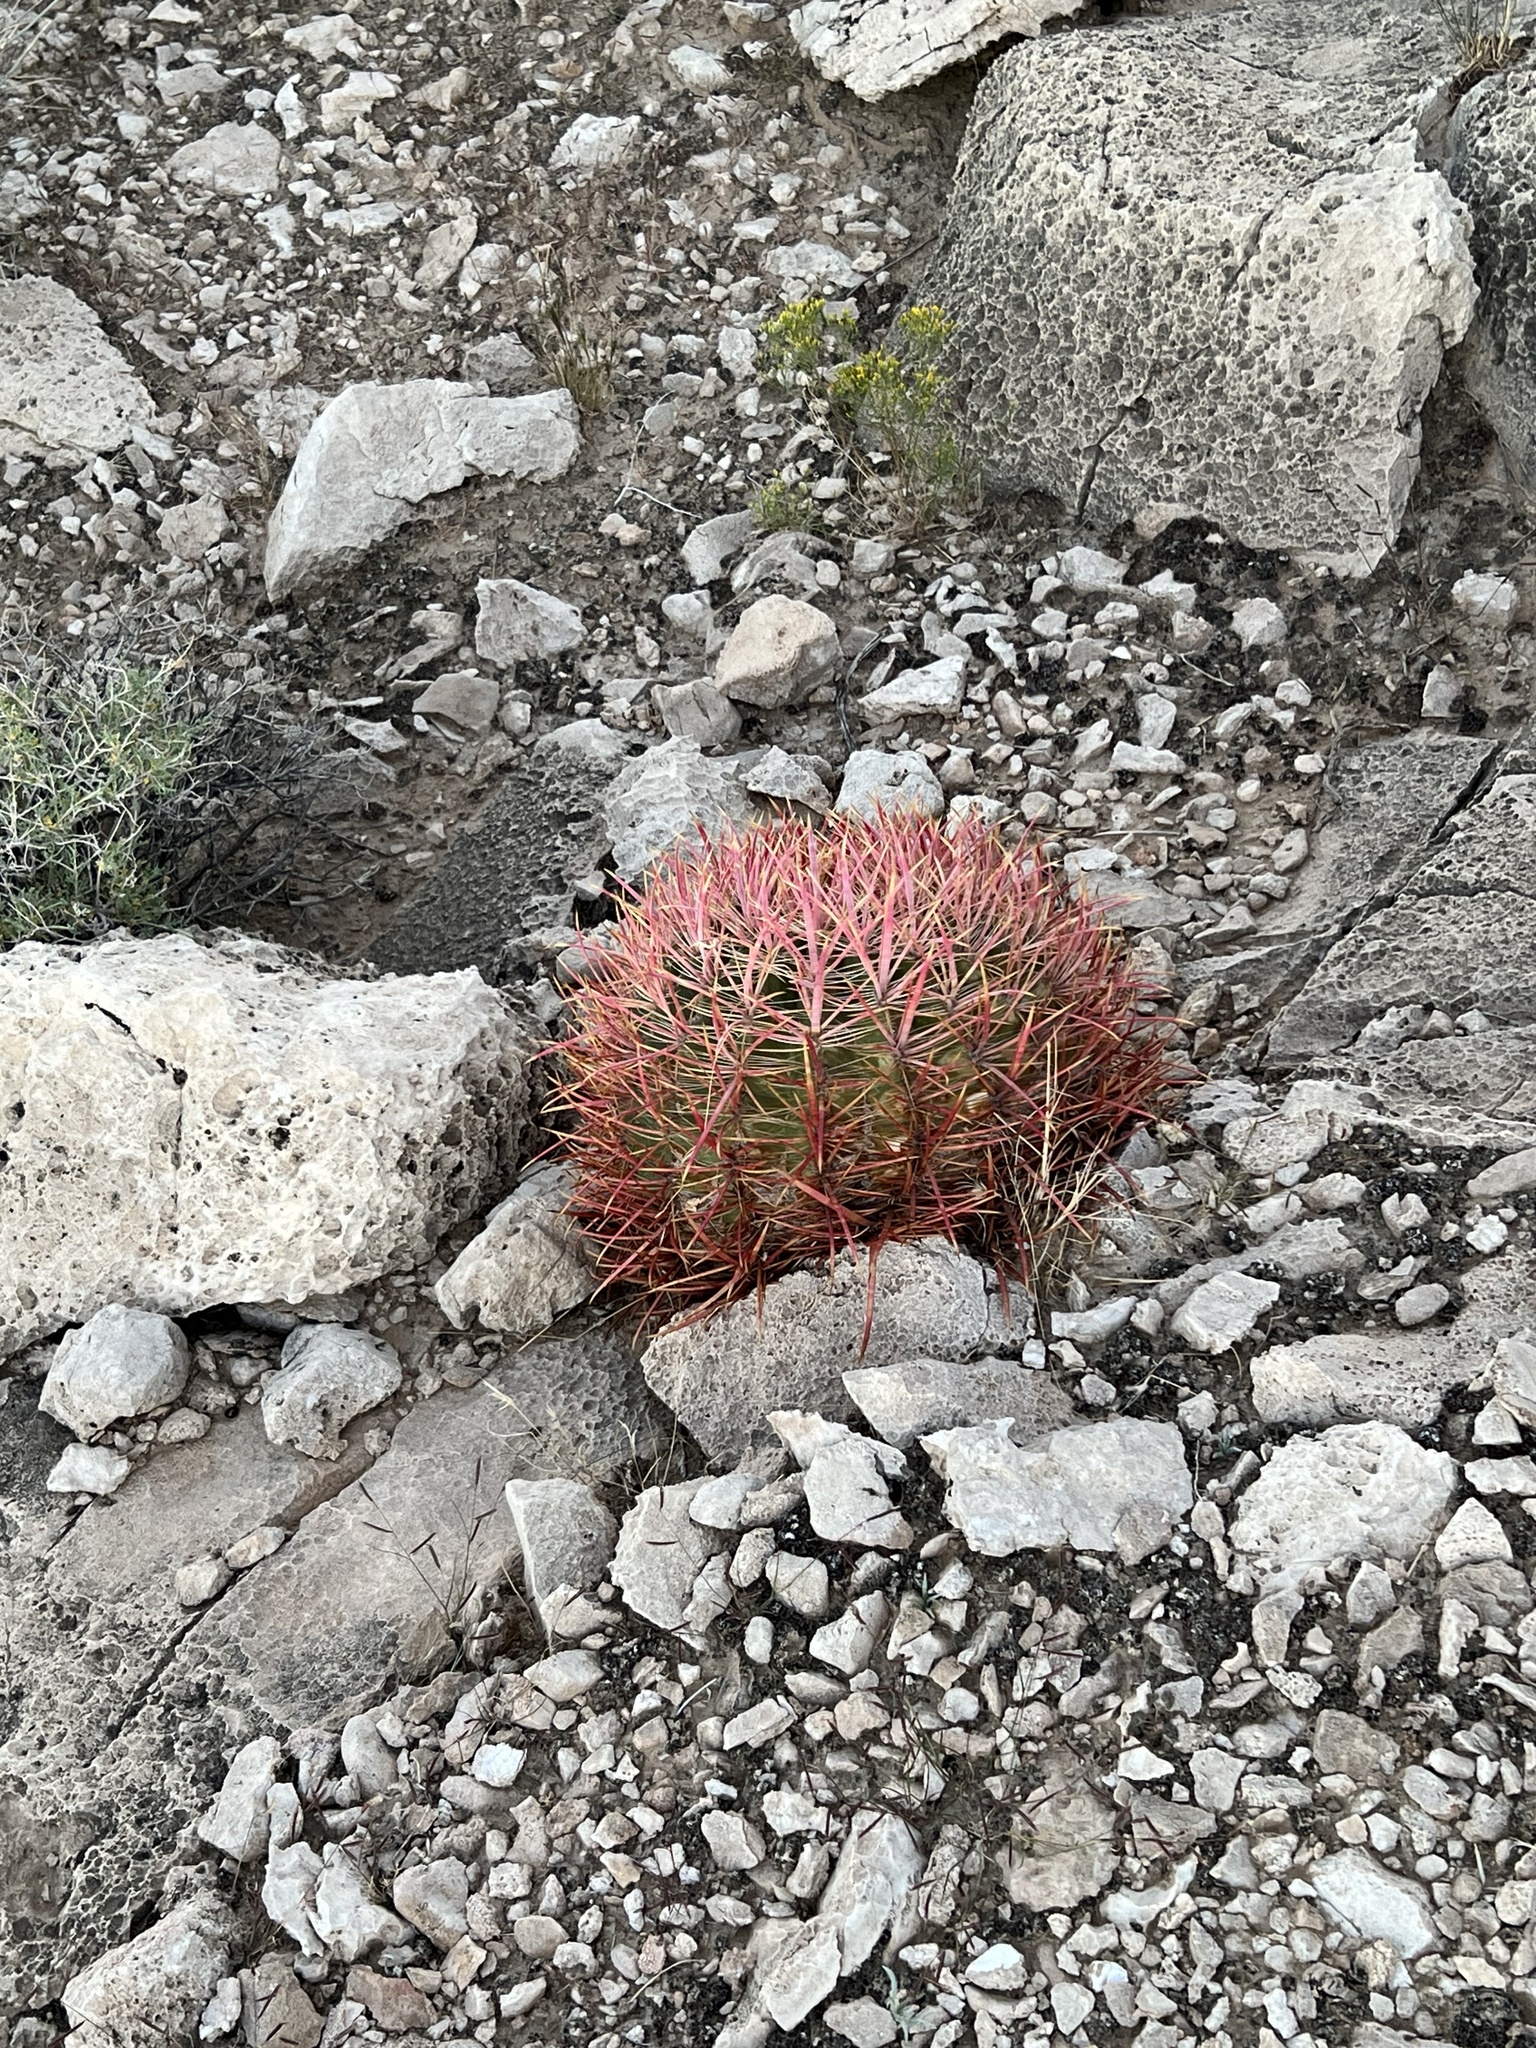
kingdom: Plantae
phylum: Tracheophyta
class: Magnoliopsida
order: Caryophyllales
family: Cactaceae
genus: Ferocactus
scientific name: Ferocactus cylindraceus
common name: California barrel cactus
